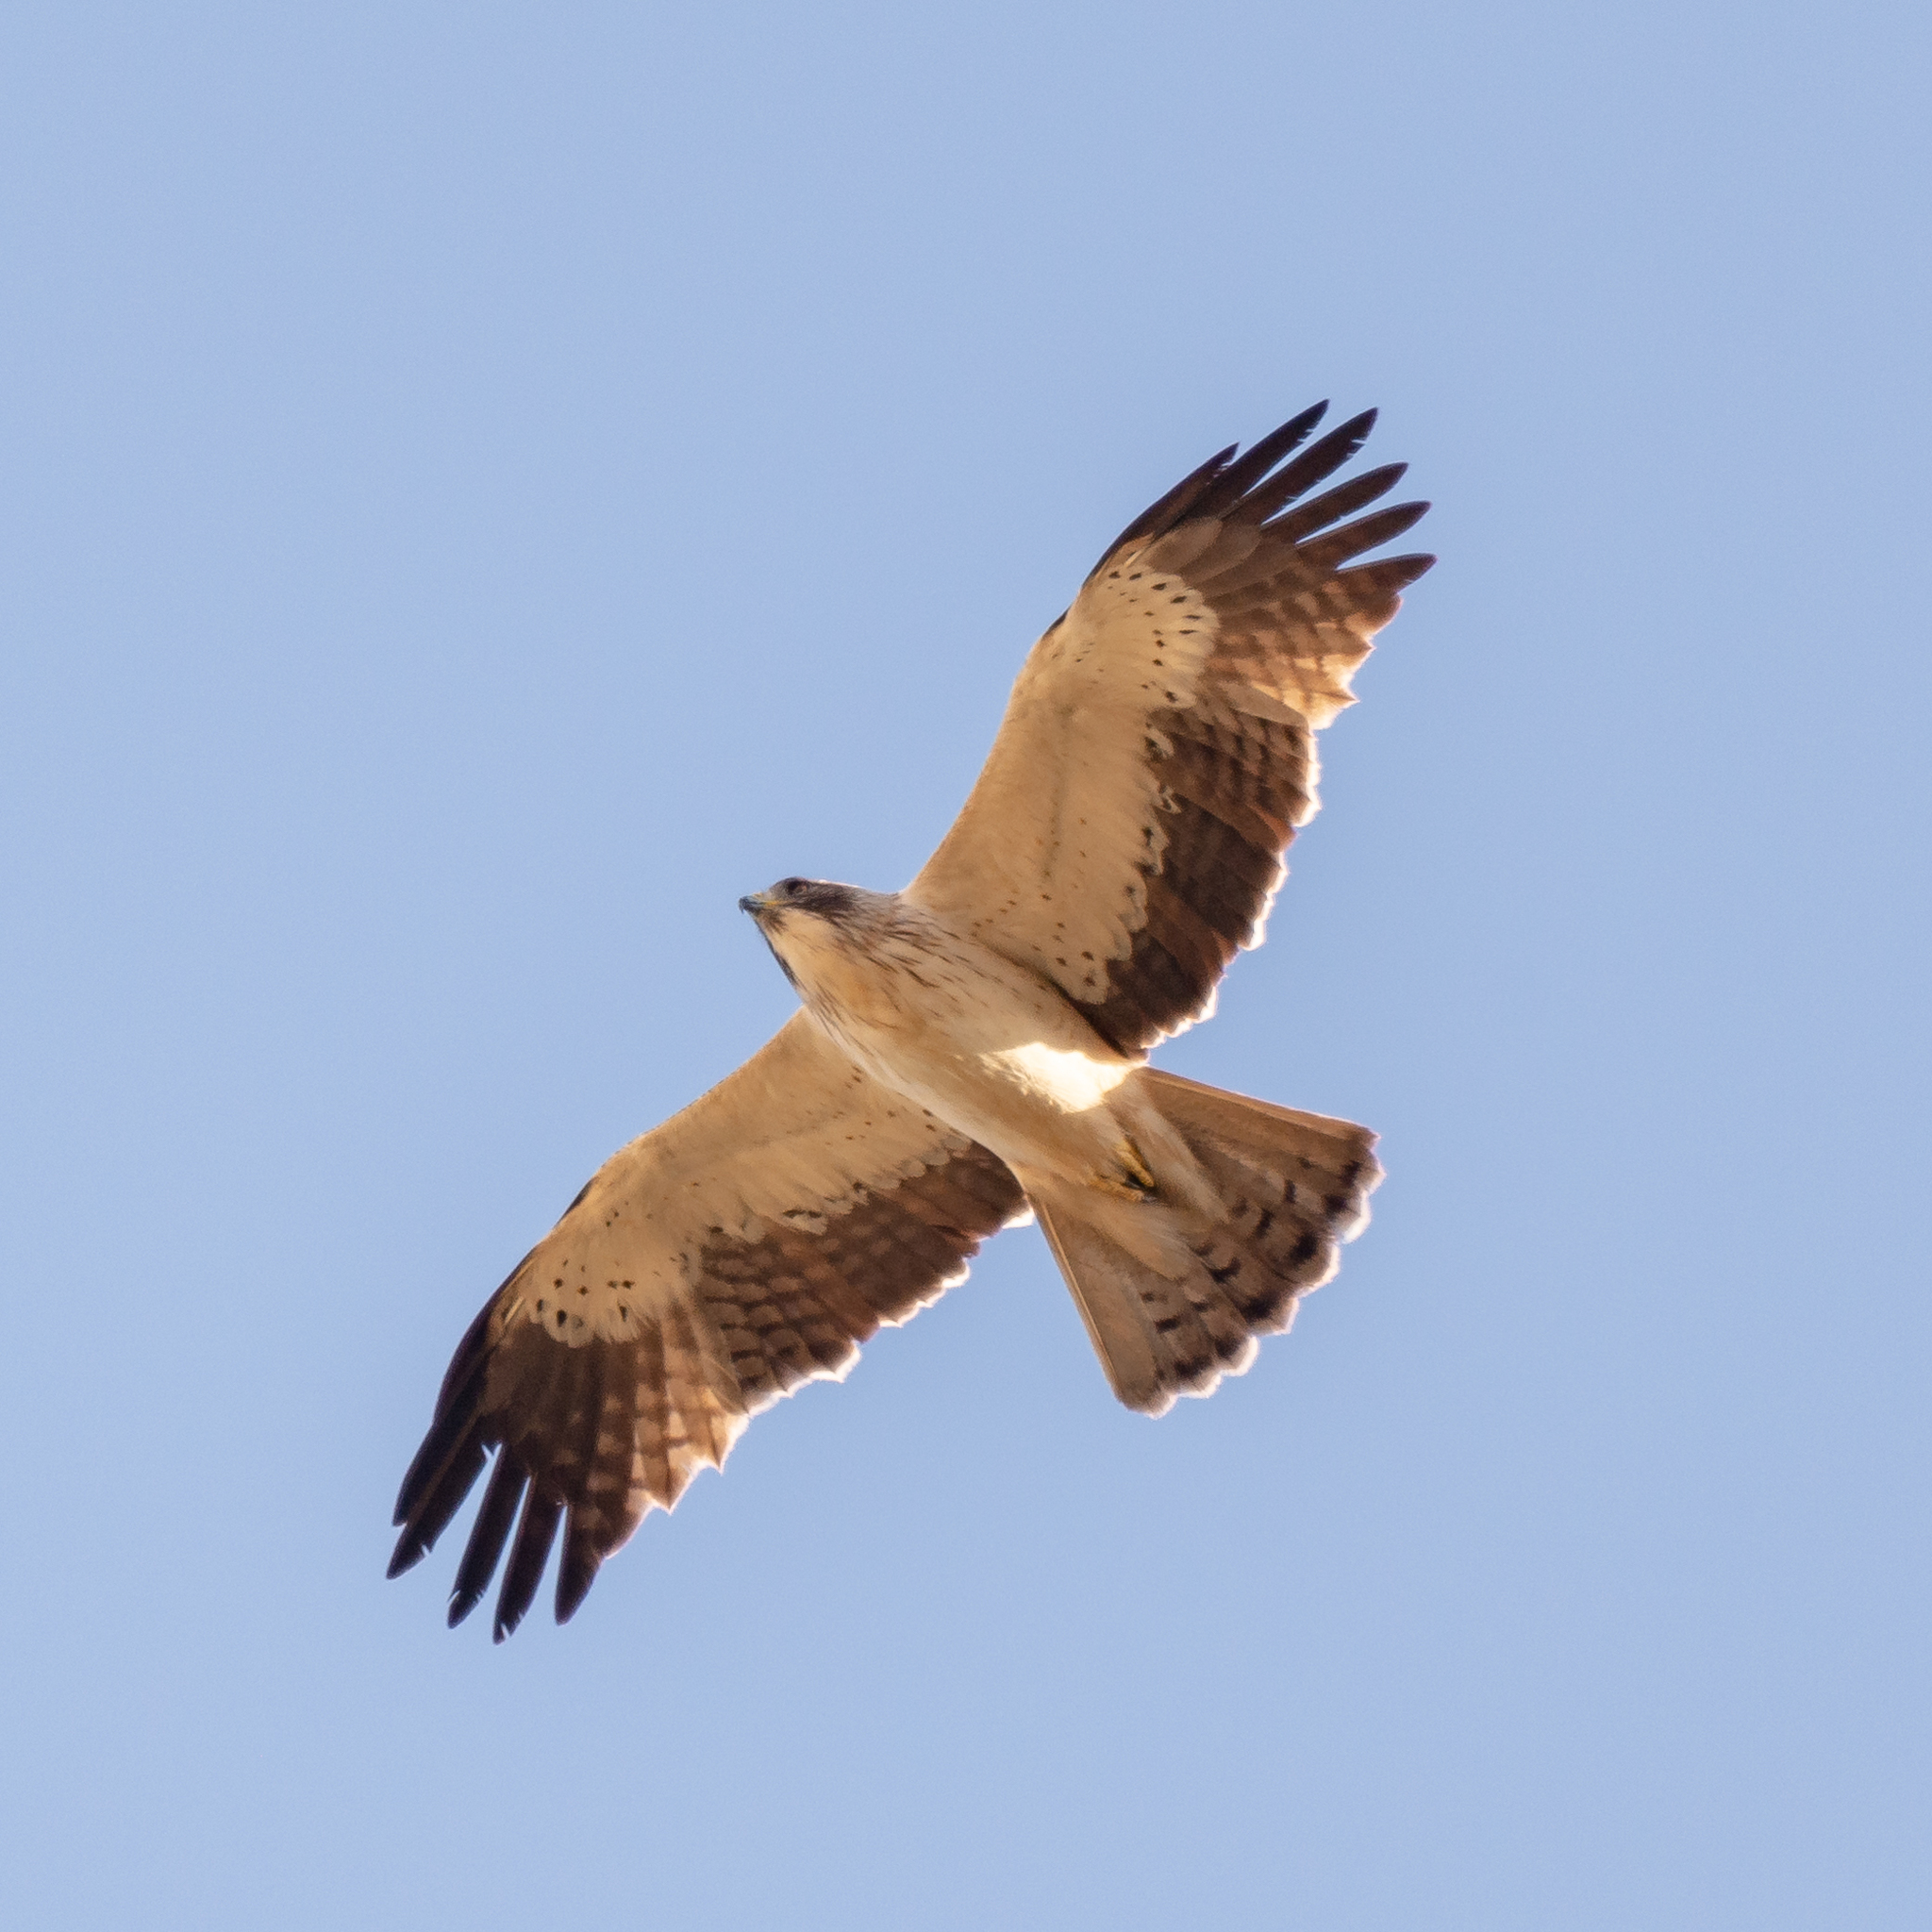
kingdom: Animalia
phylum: Chordata
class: Aves
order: Accipitriformes
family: Accipitridae
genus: Hieraaetus
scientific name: Hieraaetus pennatus
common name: Booted eagle
